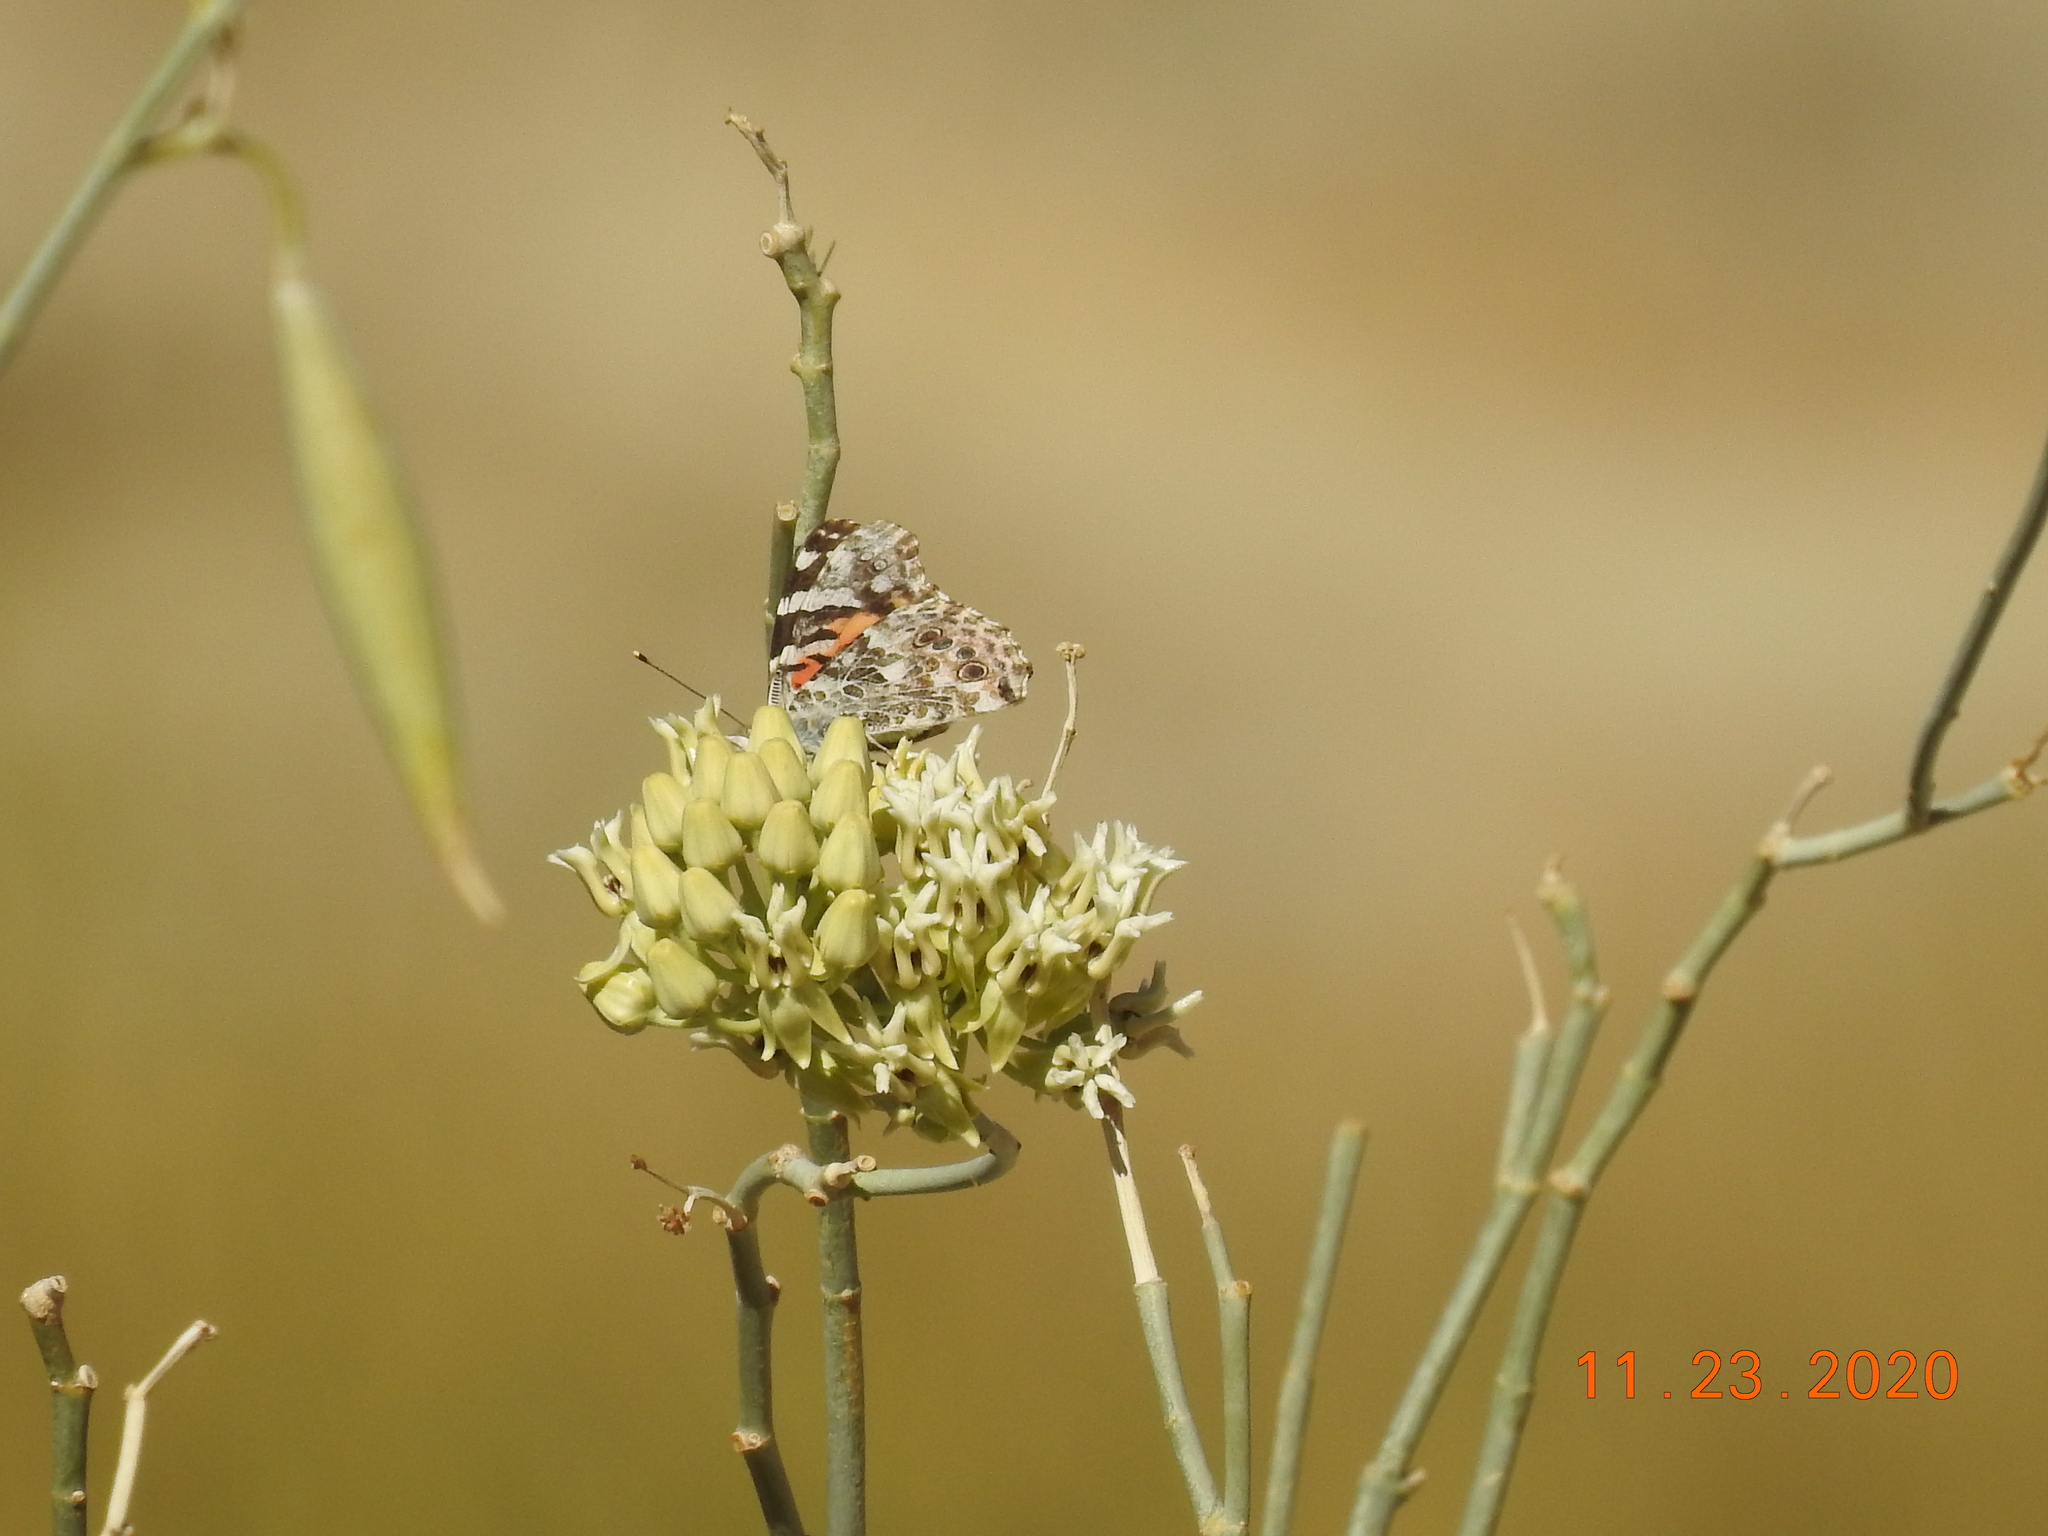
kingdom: Plantae
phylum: Tracheophyta
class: Magnoliopsida
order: Gentianales
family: Apocynaceae
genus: Asclepias
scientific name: Asclepias subulata
